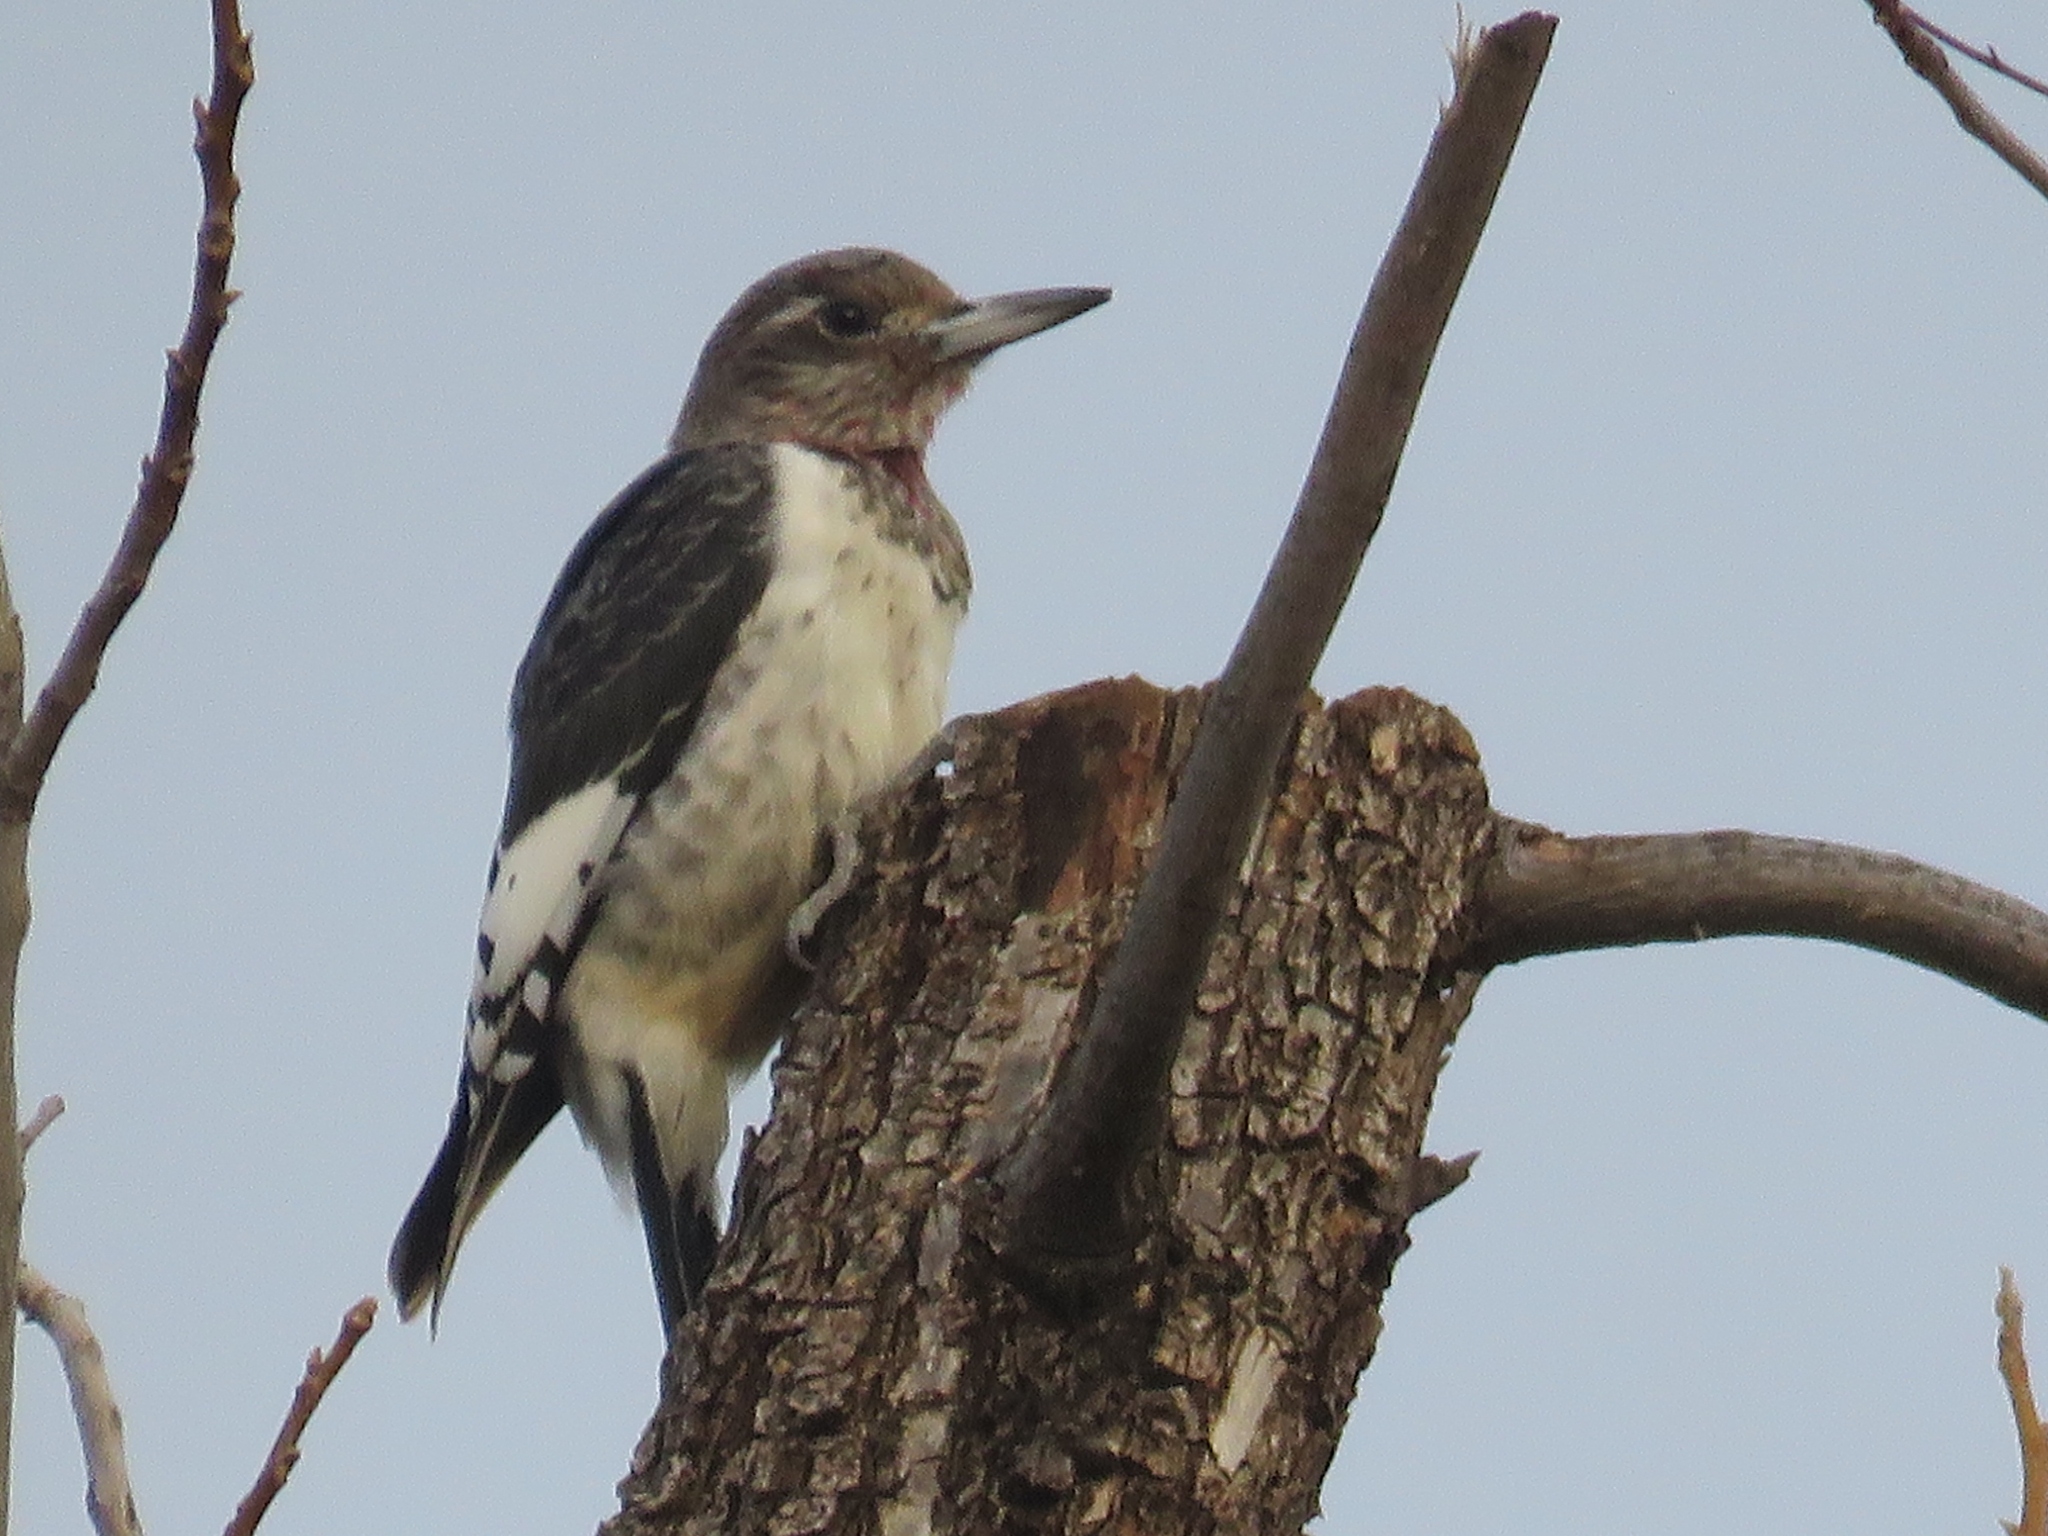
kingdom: Animalia
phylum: Chordata
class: Aves
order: Piciformes
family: Picidae
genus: Melanerpes
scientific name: Melanerpes erythrocephalus
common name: Red-headed woodpecker
